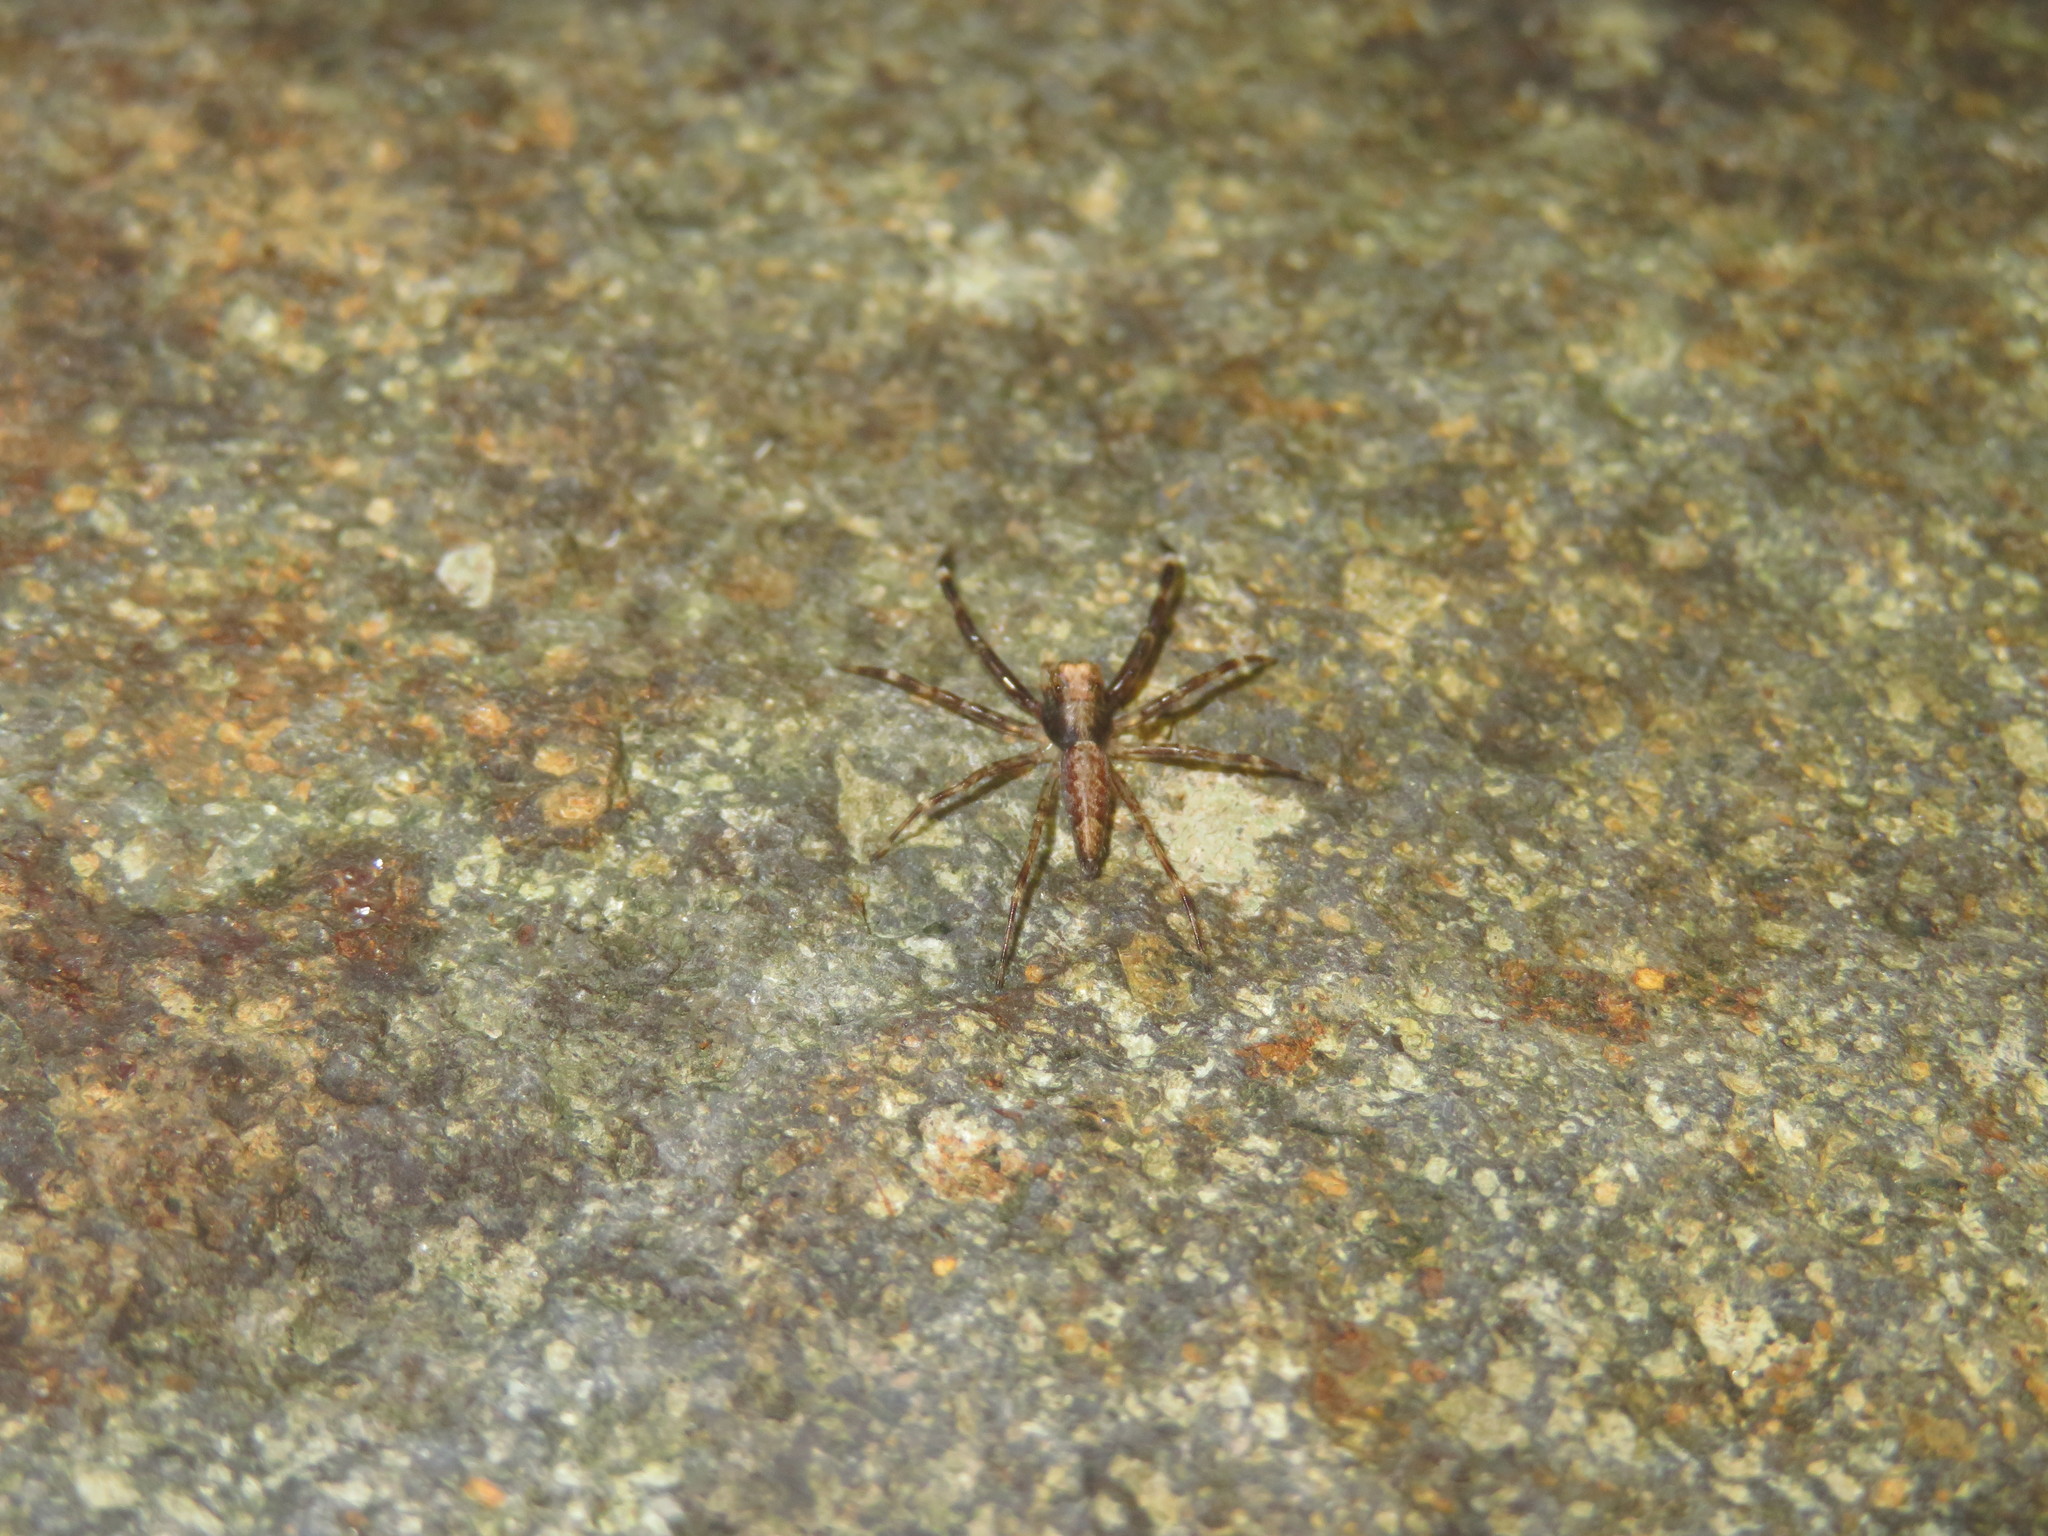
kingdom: Animalia
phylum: Arthropoda
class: Arachnida
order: Araneae
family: Salticidae
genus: Helpis
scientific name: Helpis minitabunda
